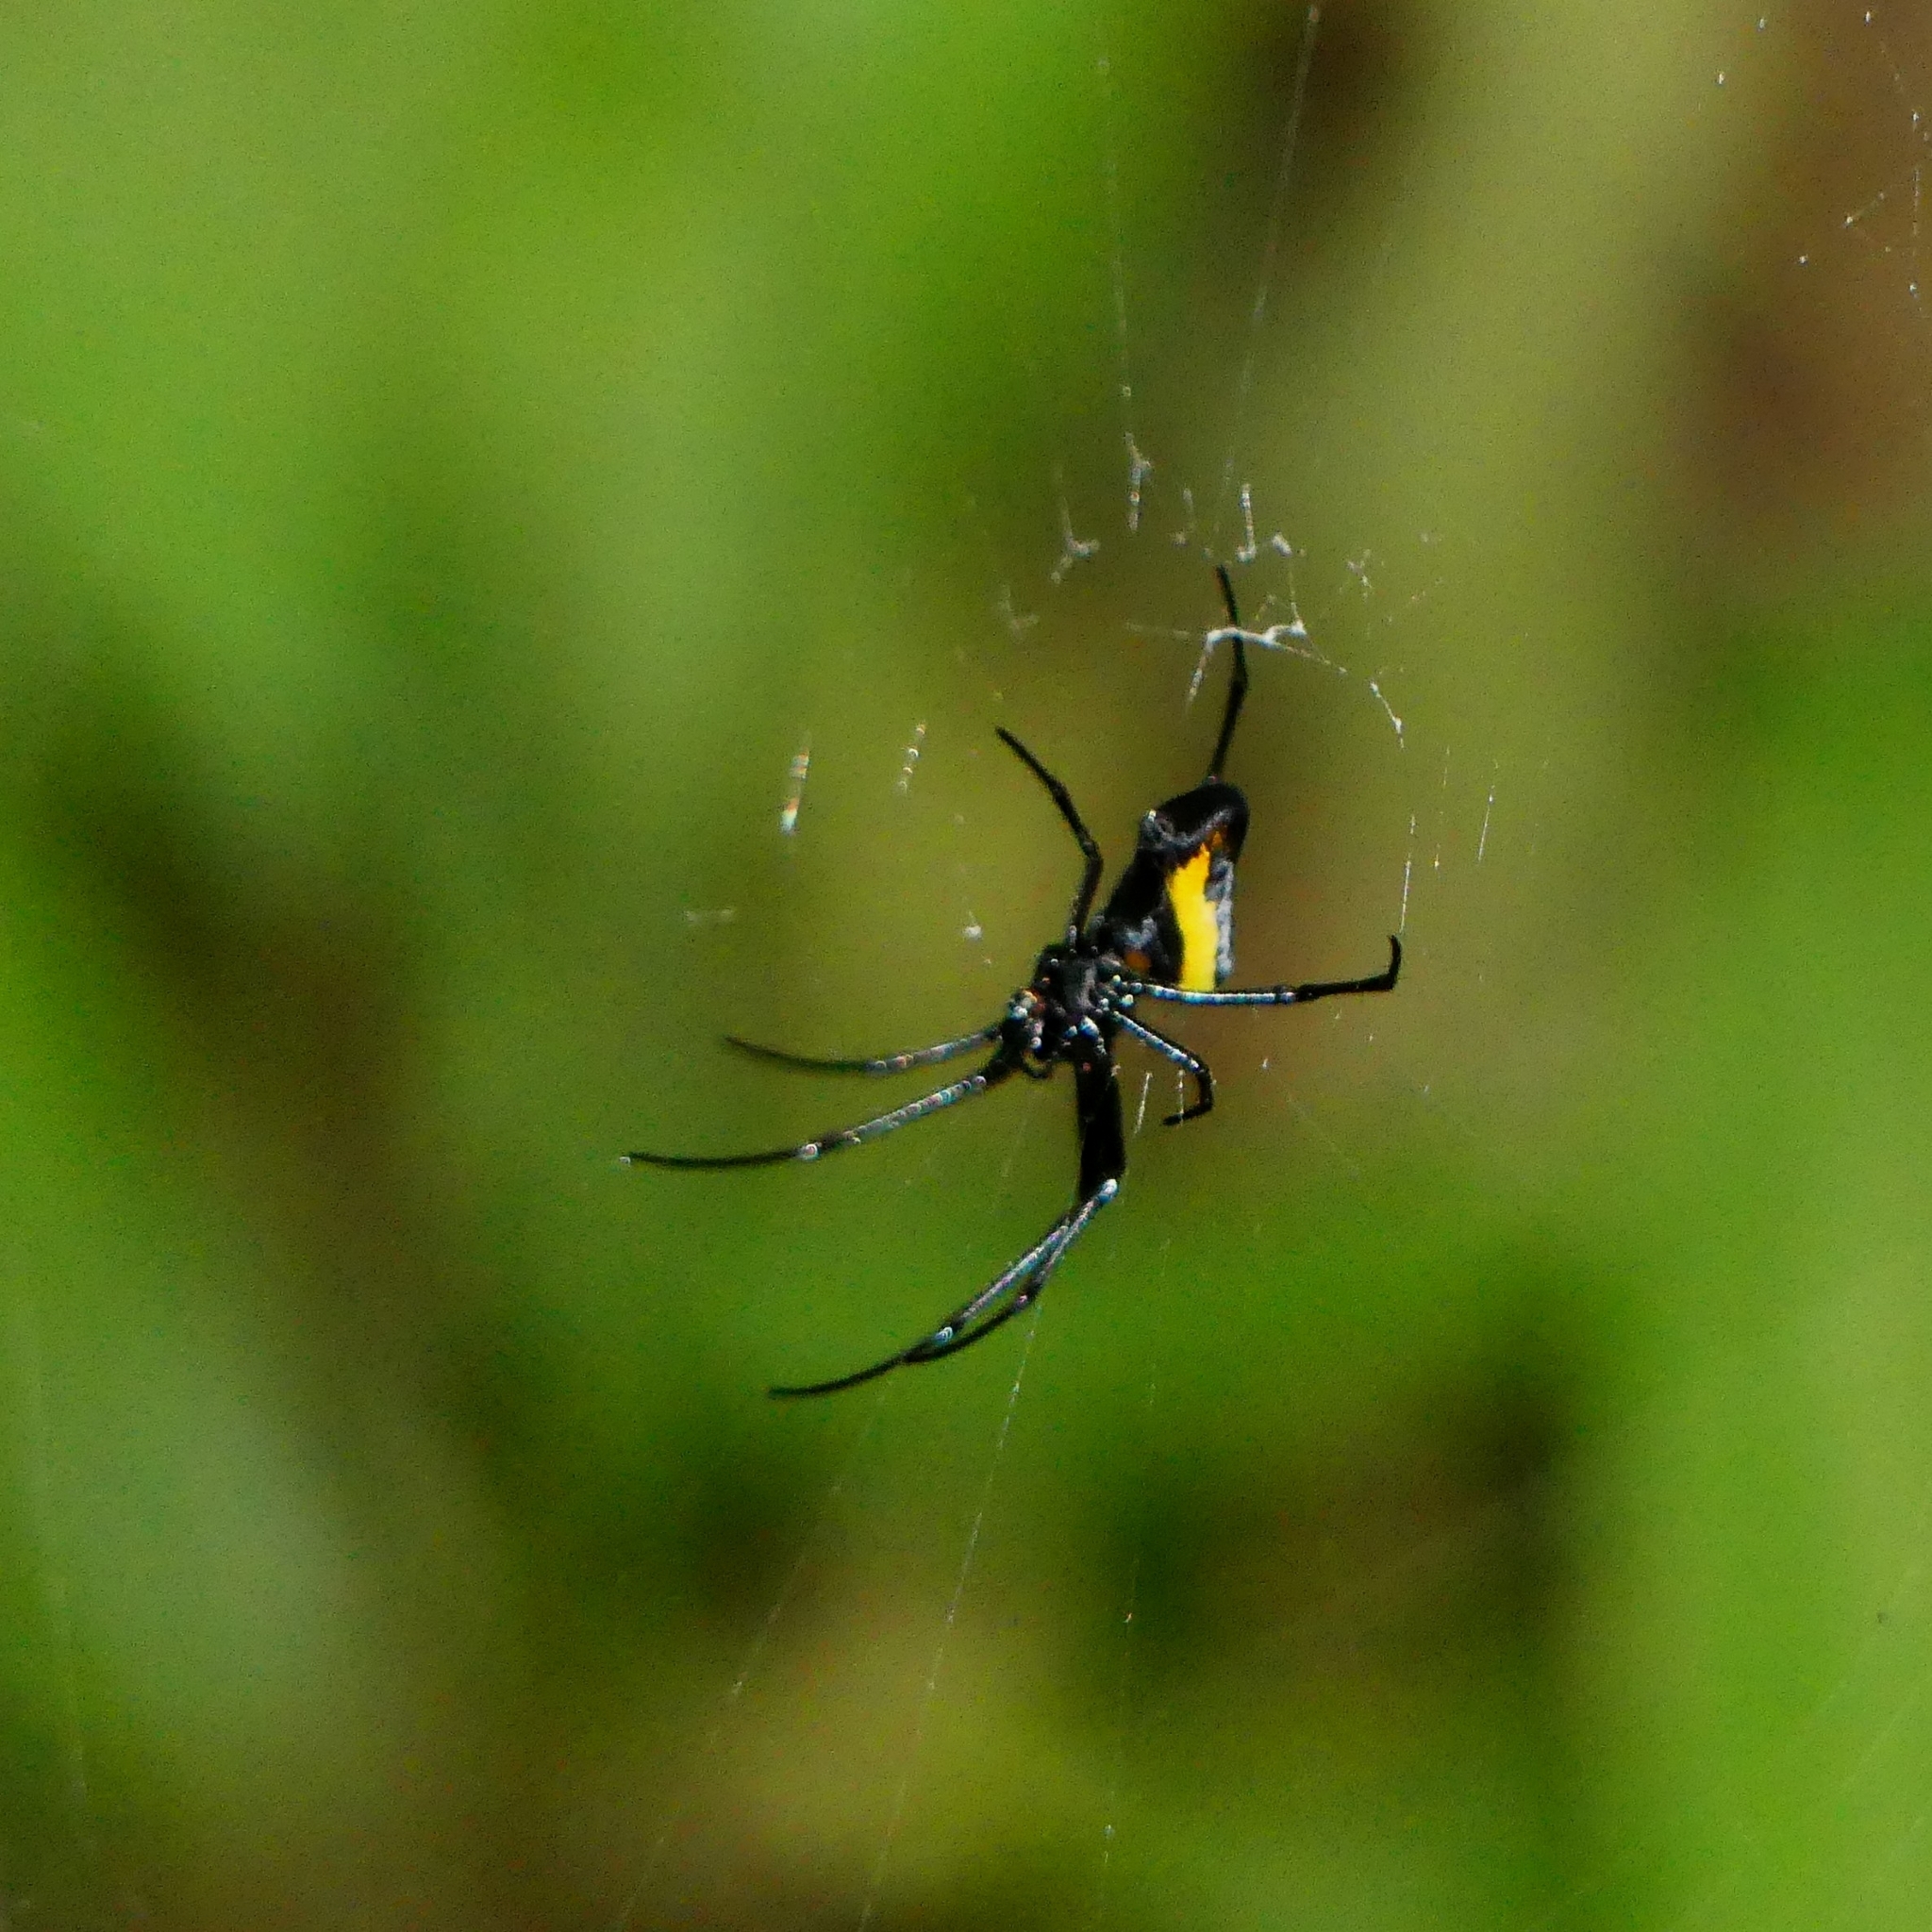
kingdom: Animalia
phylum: Arthropoda
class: Arachnida
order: Araneae
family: Tetragnathidae
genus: Leucauge
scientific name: Leucauge funebris
